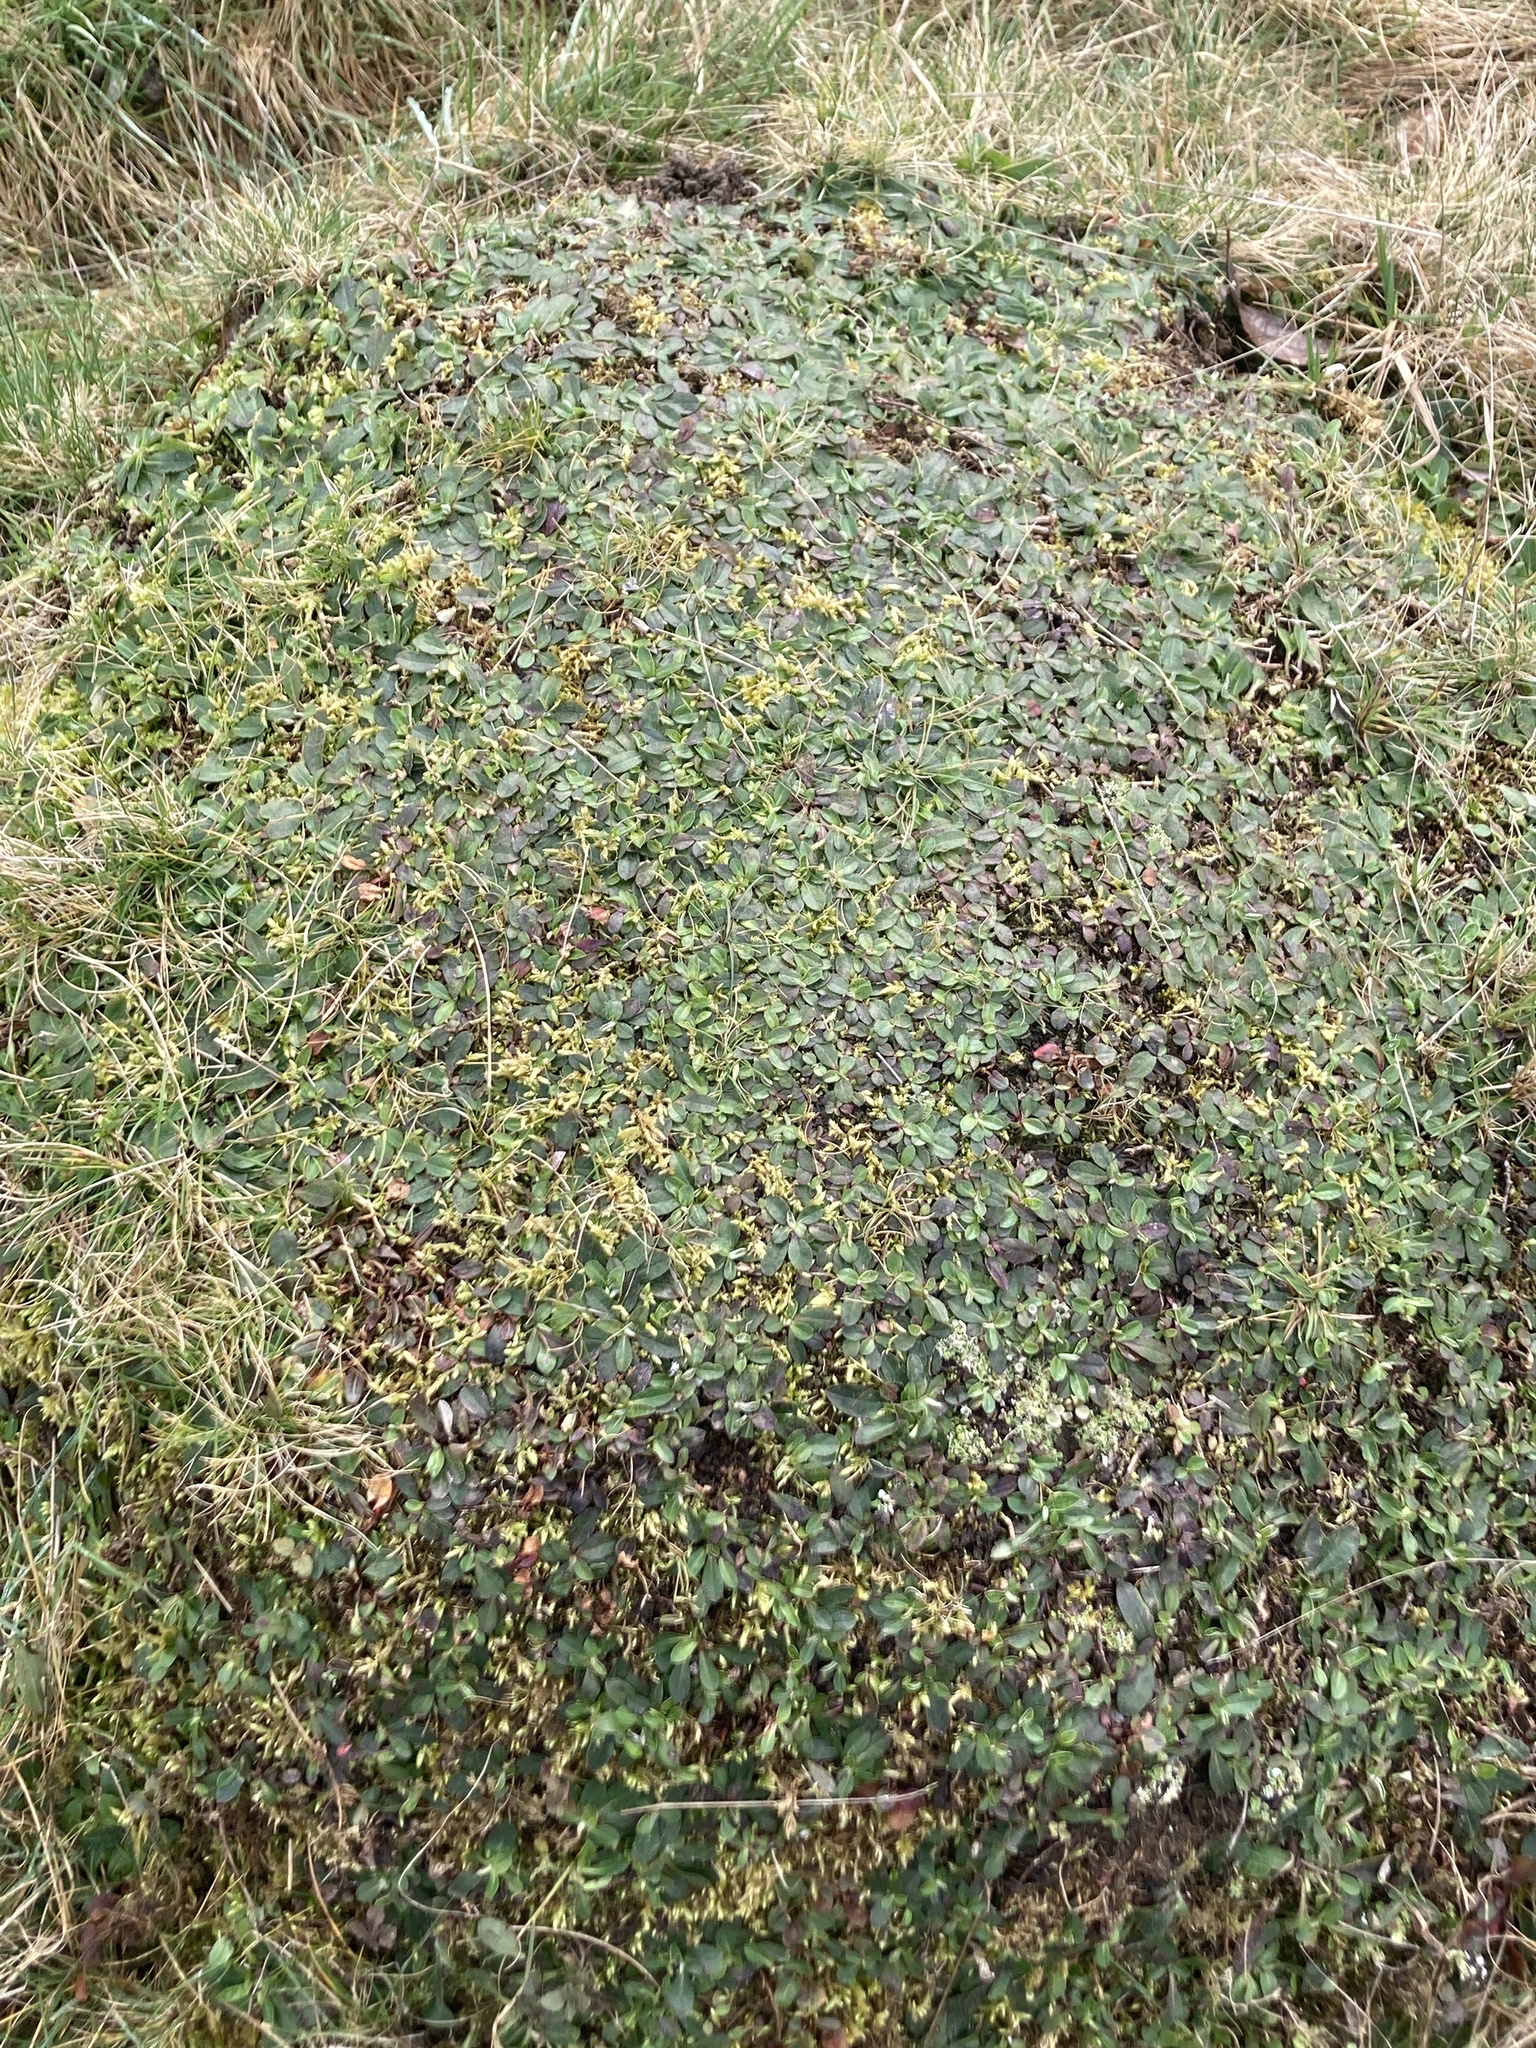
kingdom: Plantae
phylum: Tracheophyta
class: Magnoliopsida
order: Asterales
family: Asteraceae
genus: Pilosella
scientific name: Pilosella officinarum
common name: Mouse-ear hawkweed
